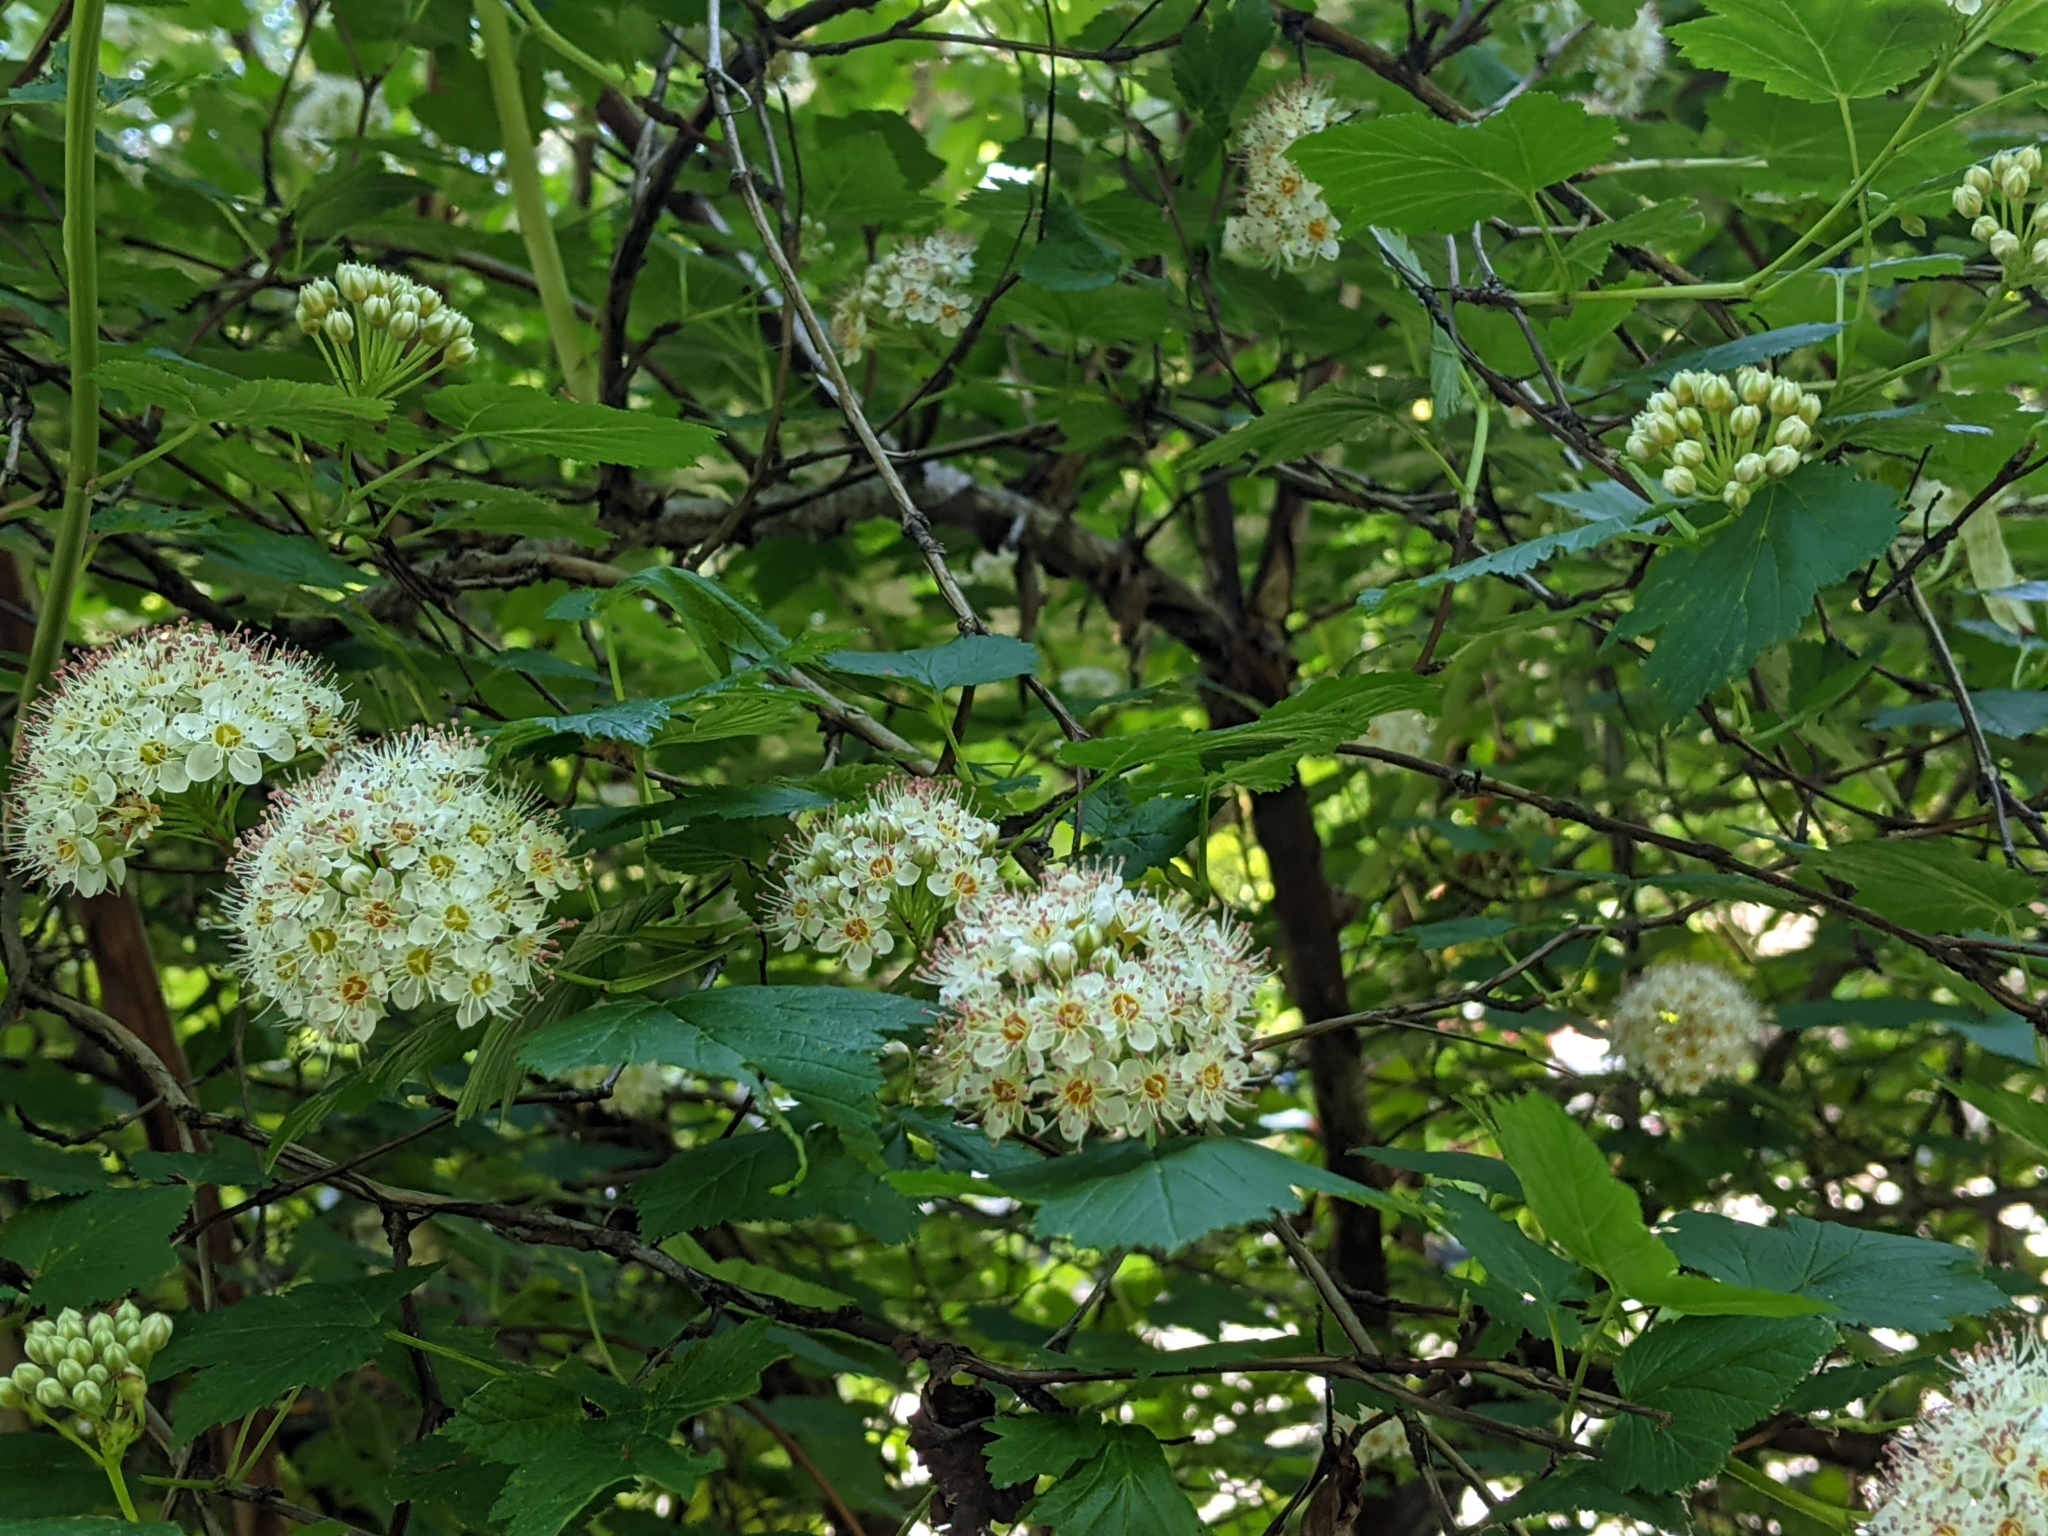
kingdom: Plantae
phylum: Tracheophyta
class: Magnoliopsida
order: Rosales
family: Rosaceae
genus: Physocarpus
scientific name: Physocarpus capitatus
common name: Pacific ninebark
